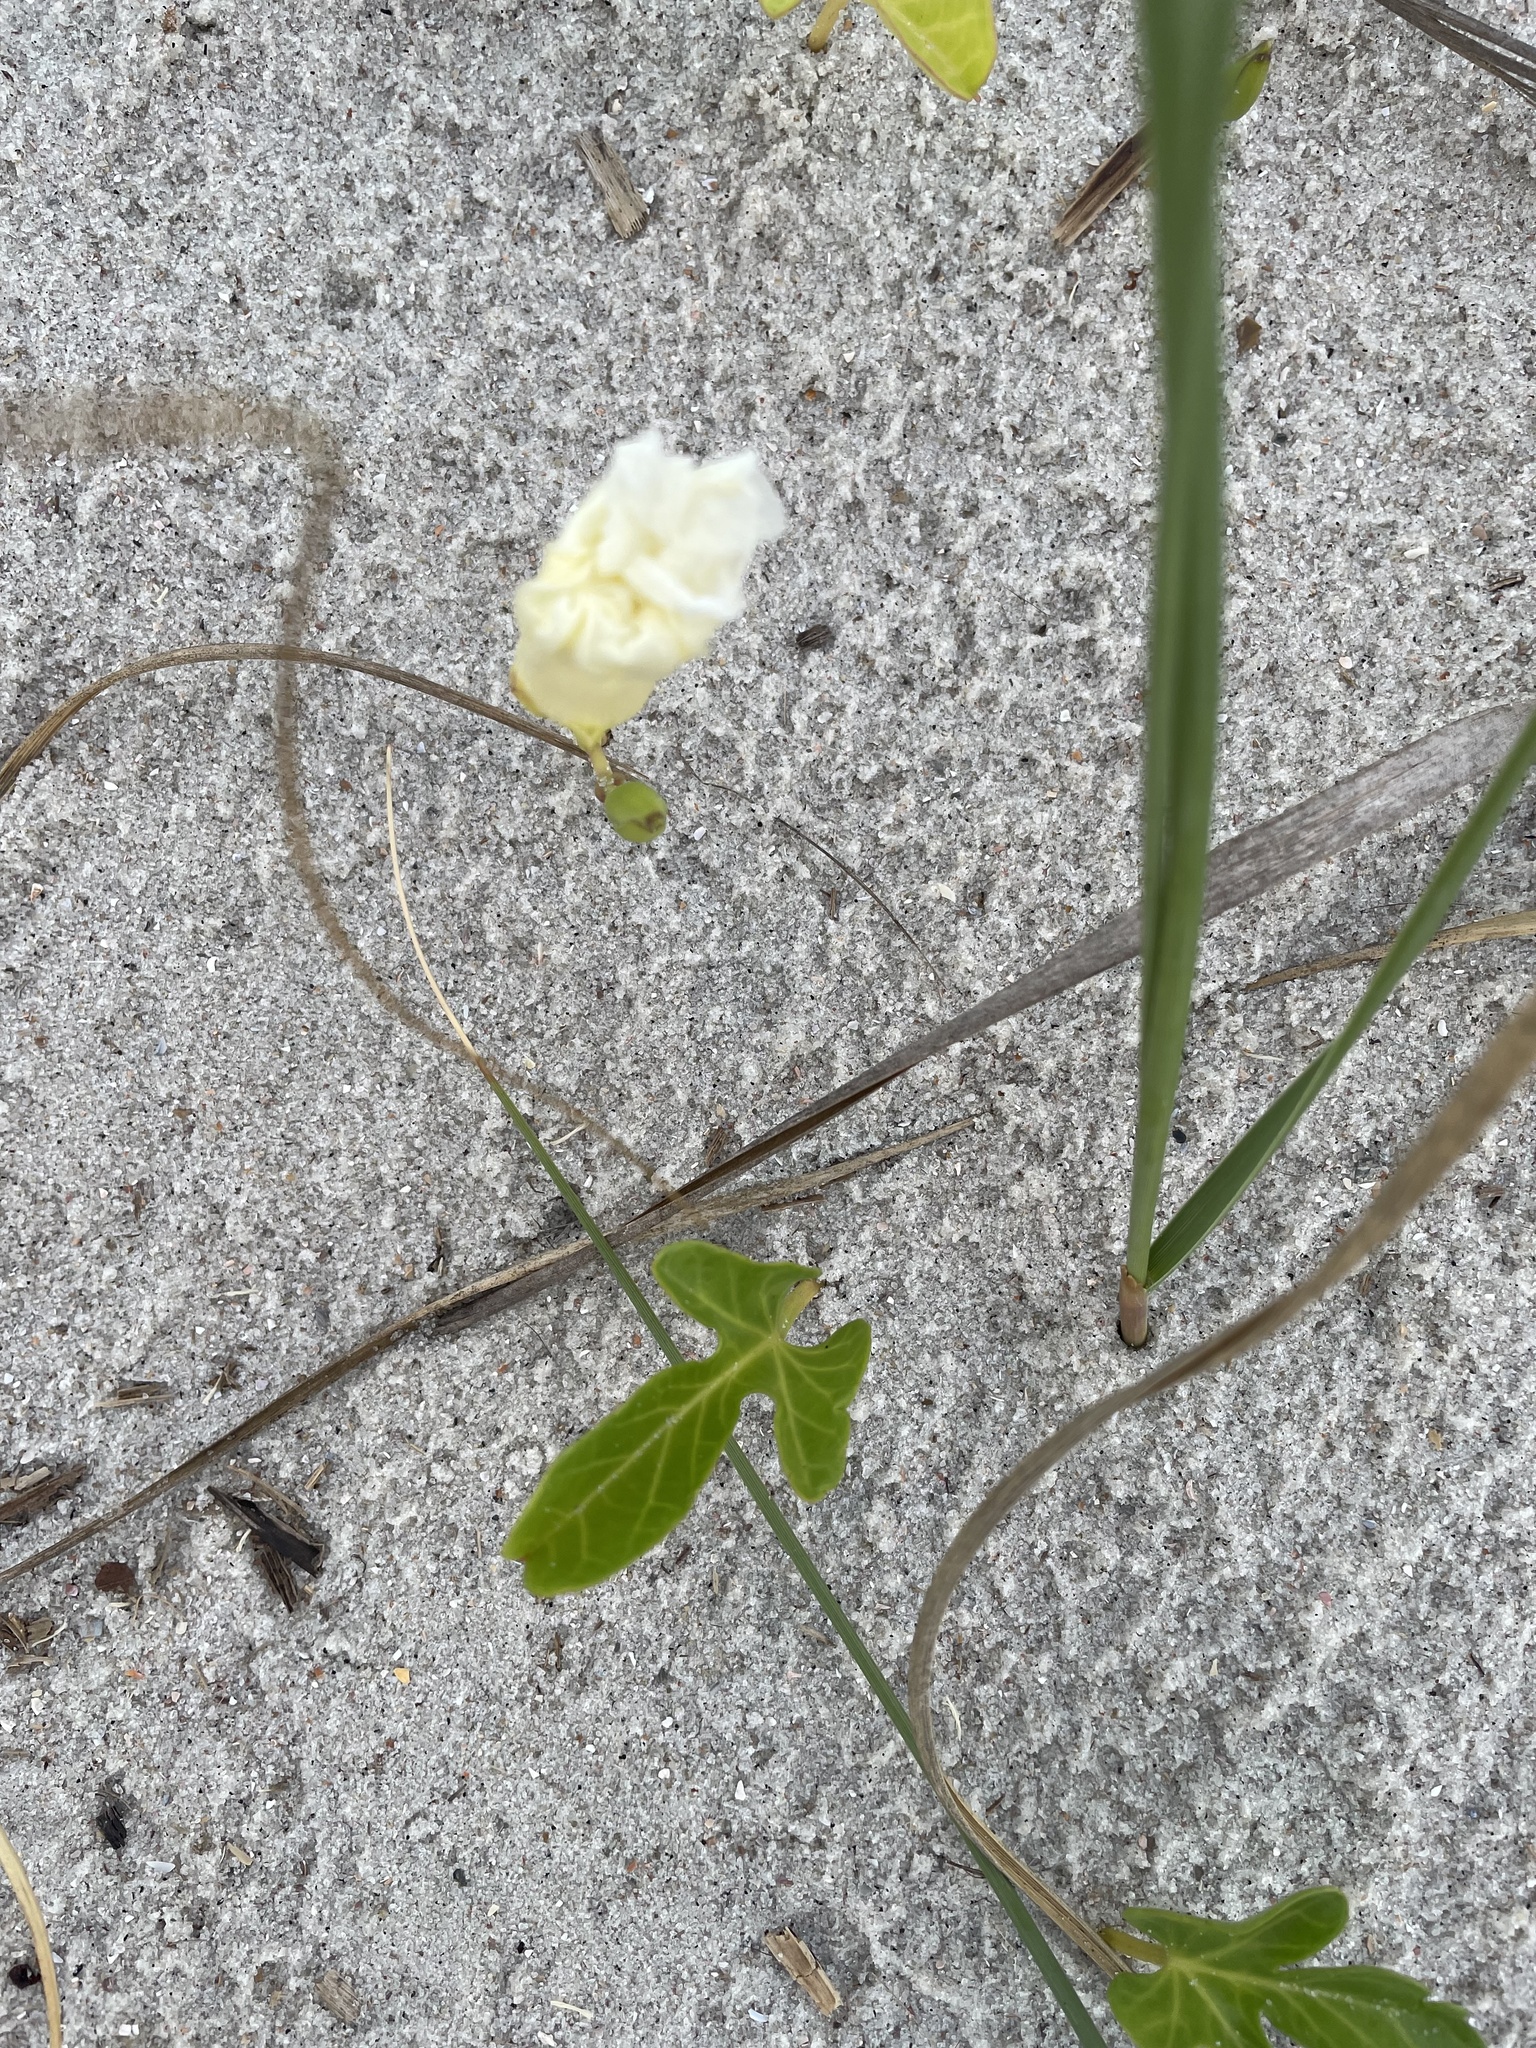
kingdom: Plantae
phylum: Tracheophyta
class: Magnoliopsida
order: Solanales
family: Convolvulaceae
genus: Ipomoea
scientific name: Ipomoea imperati
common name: Fiddle-leaf morning-glory
